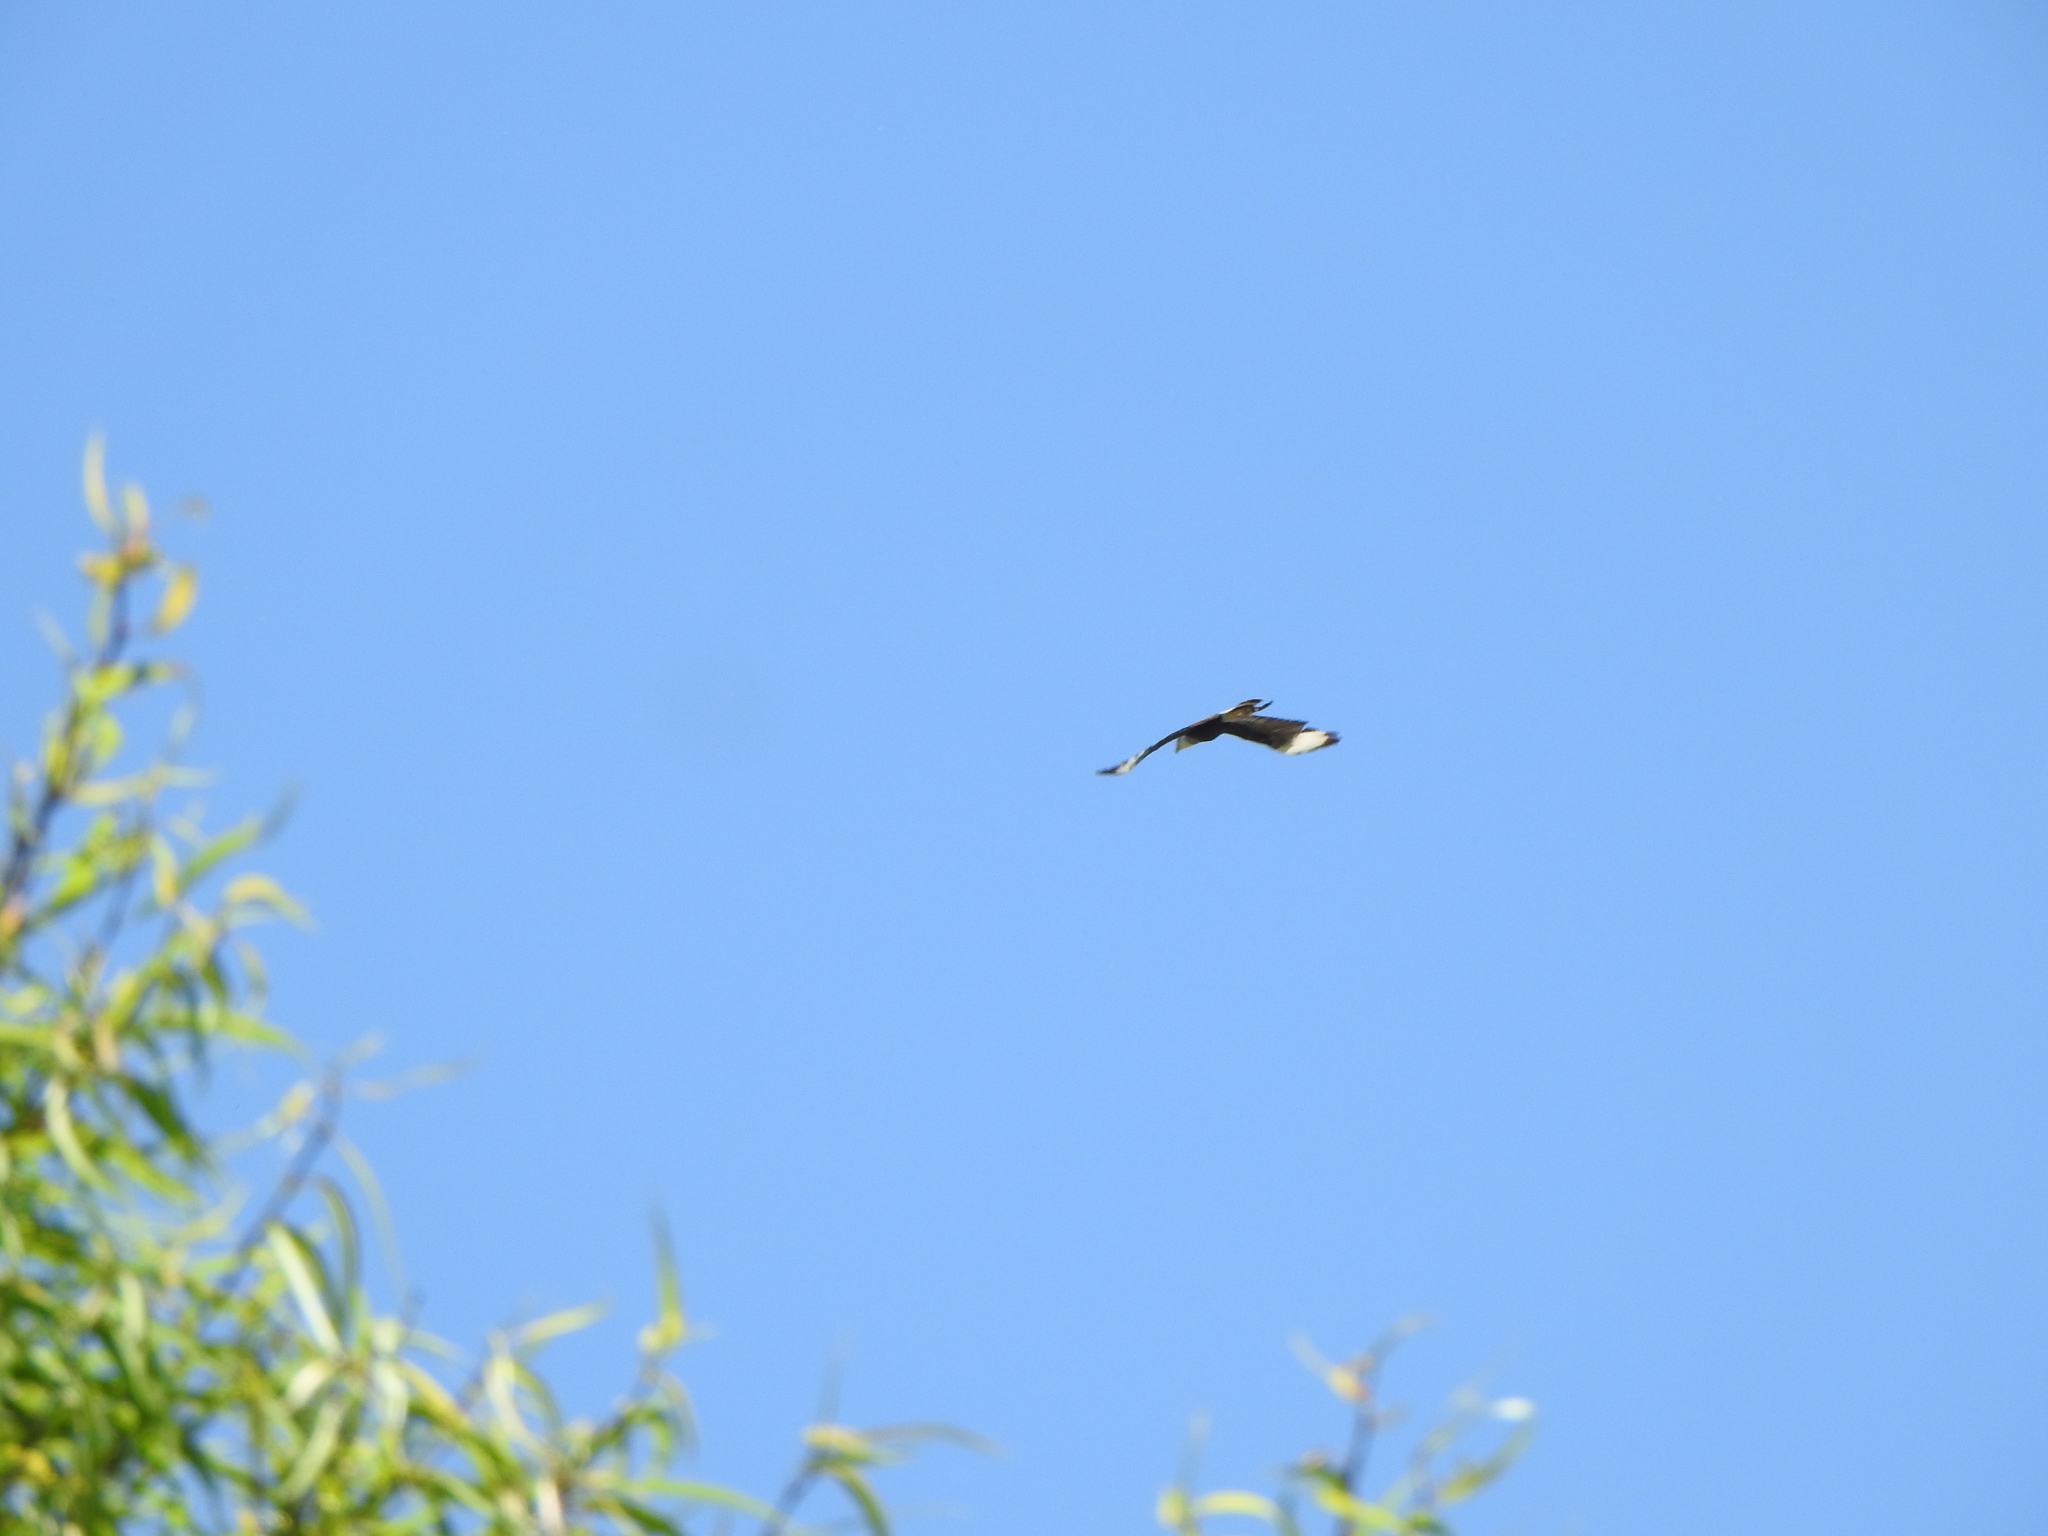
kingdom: Animalia
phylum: Chordata
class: Aves
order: Falconiformes
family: Falconidae
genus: Caracara
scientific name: Caracara plancus
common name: Southern caracara
